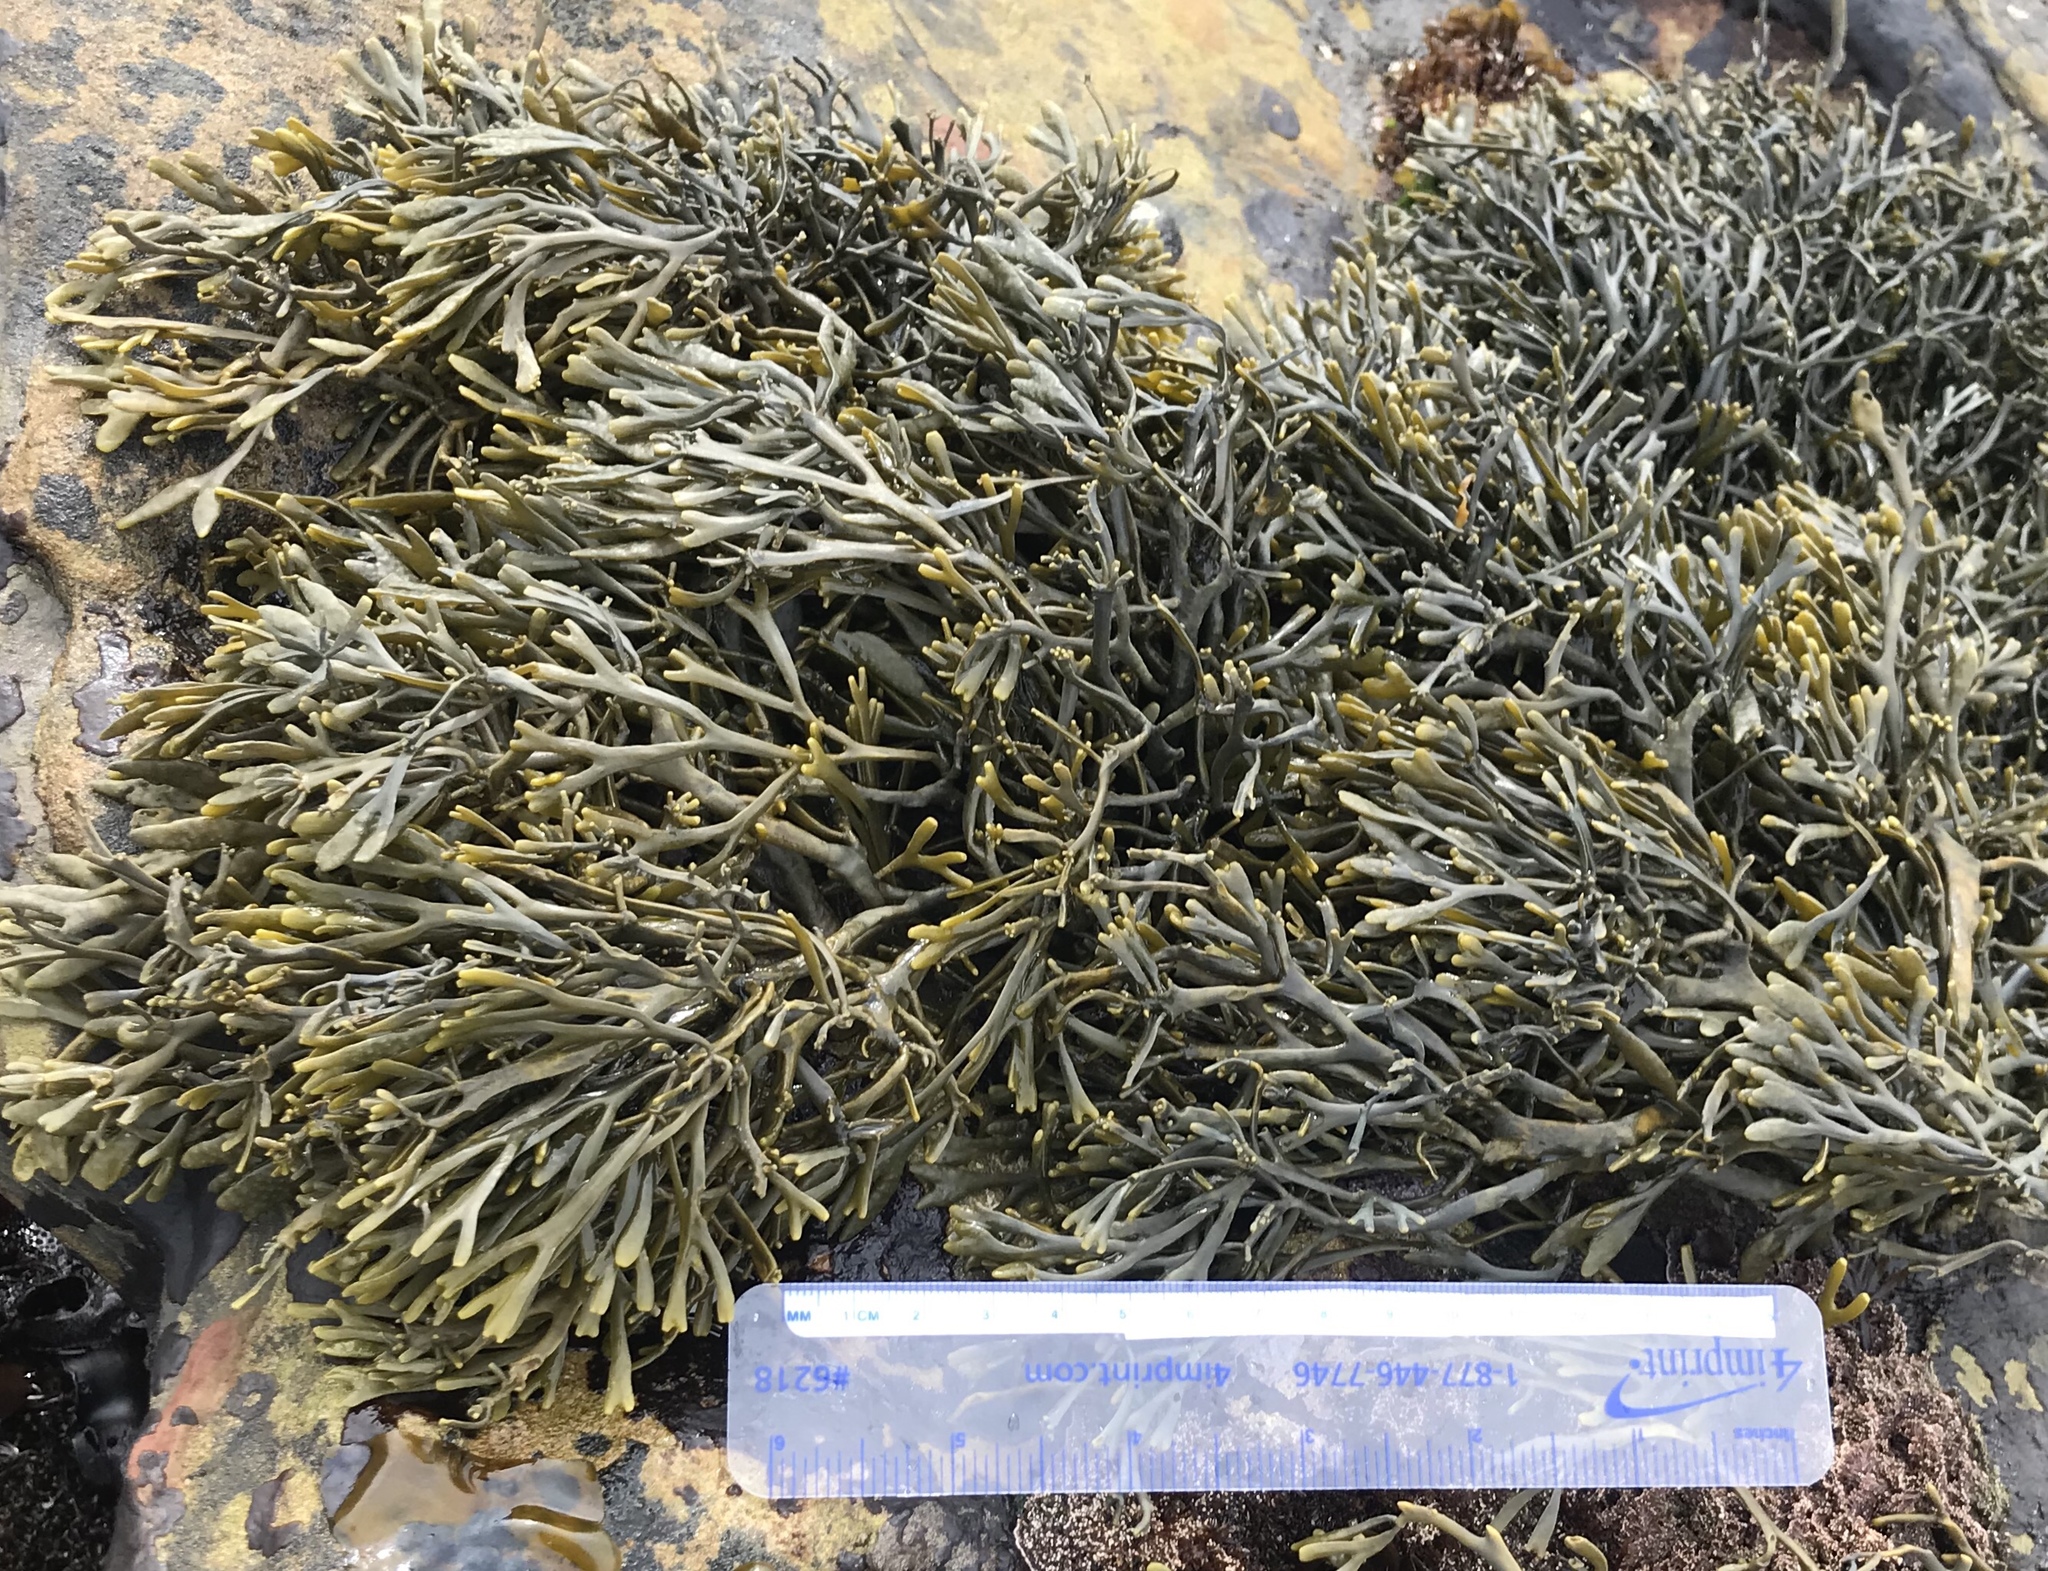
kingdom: Chromista
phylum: Ochrophyta
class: Phaeophyceae
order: Fucales
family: Fucaceae
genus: Silvetia
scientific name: Silvetia
